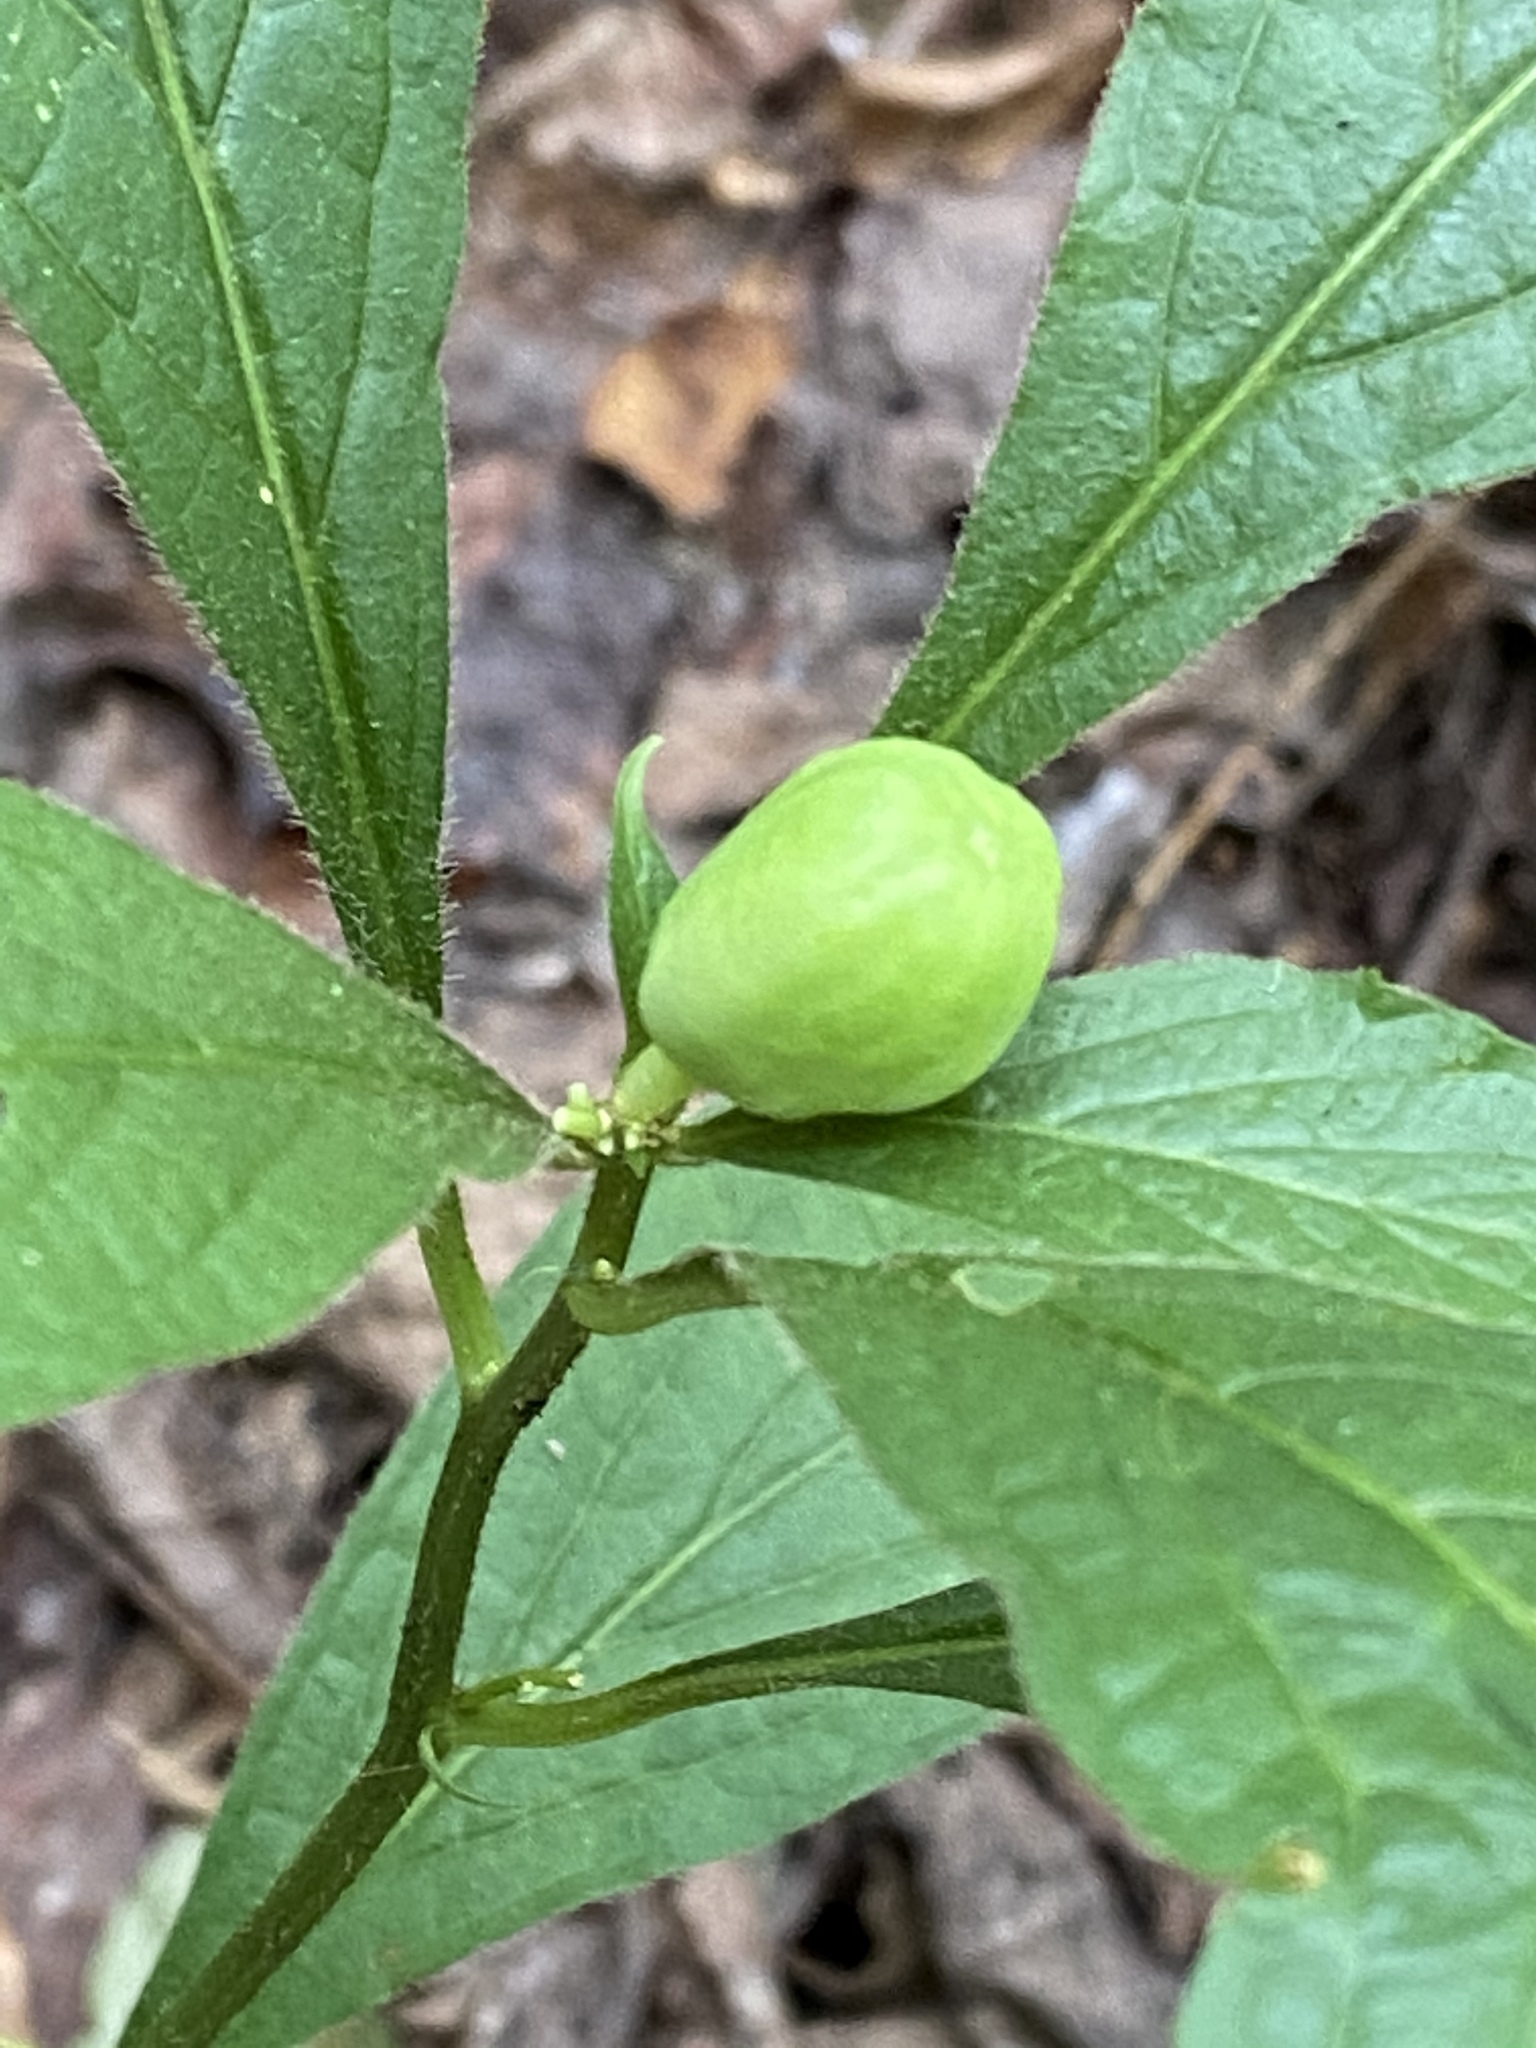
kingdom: Plantae
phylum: Tracheophyta
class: Magnoliopsida
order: Malpighiales
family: Violaceae
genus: Cubelium
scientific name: Cubelium concolor
